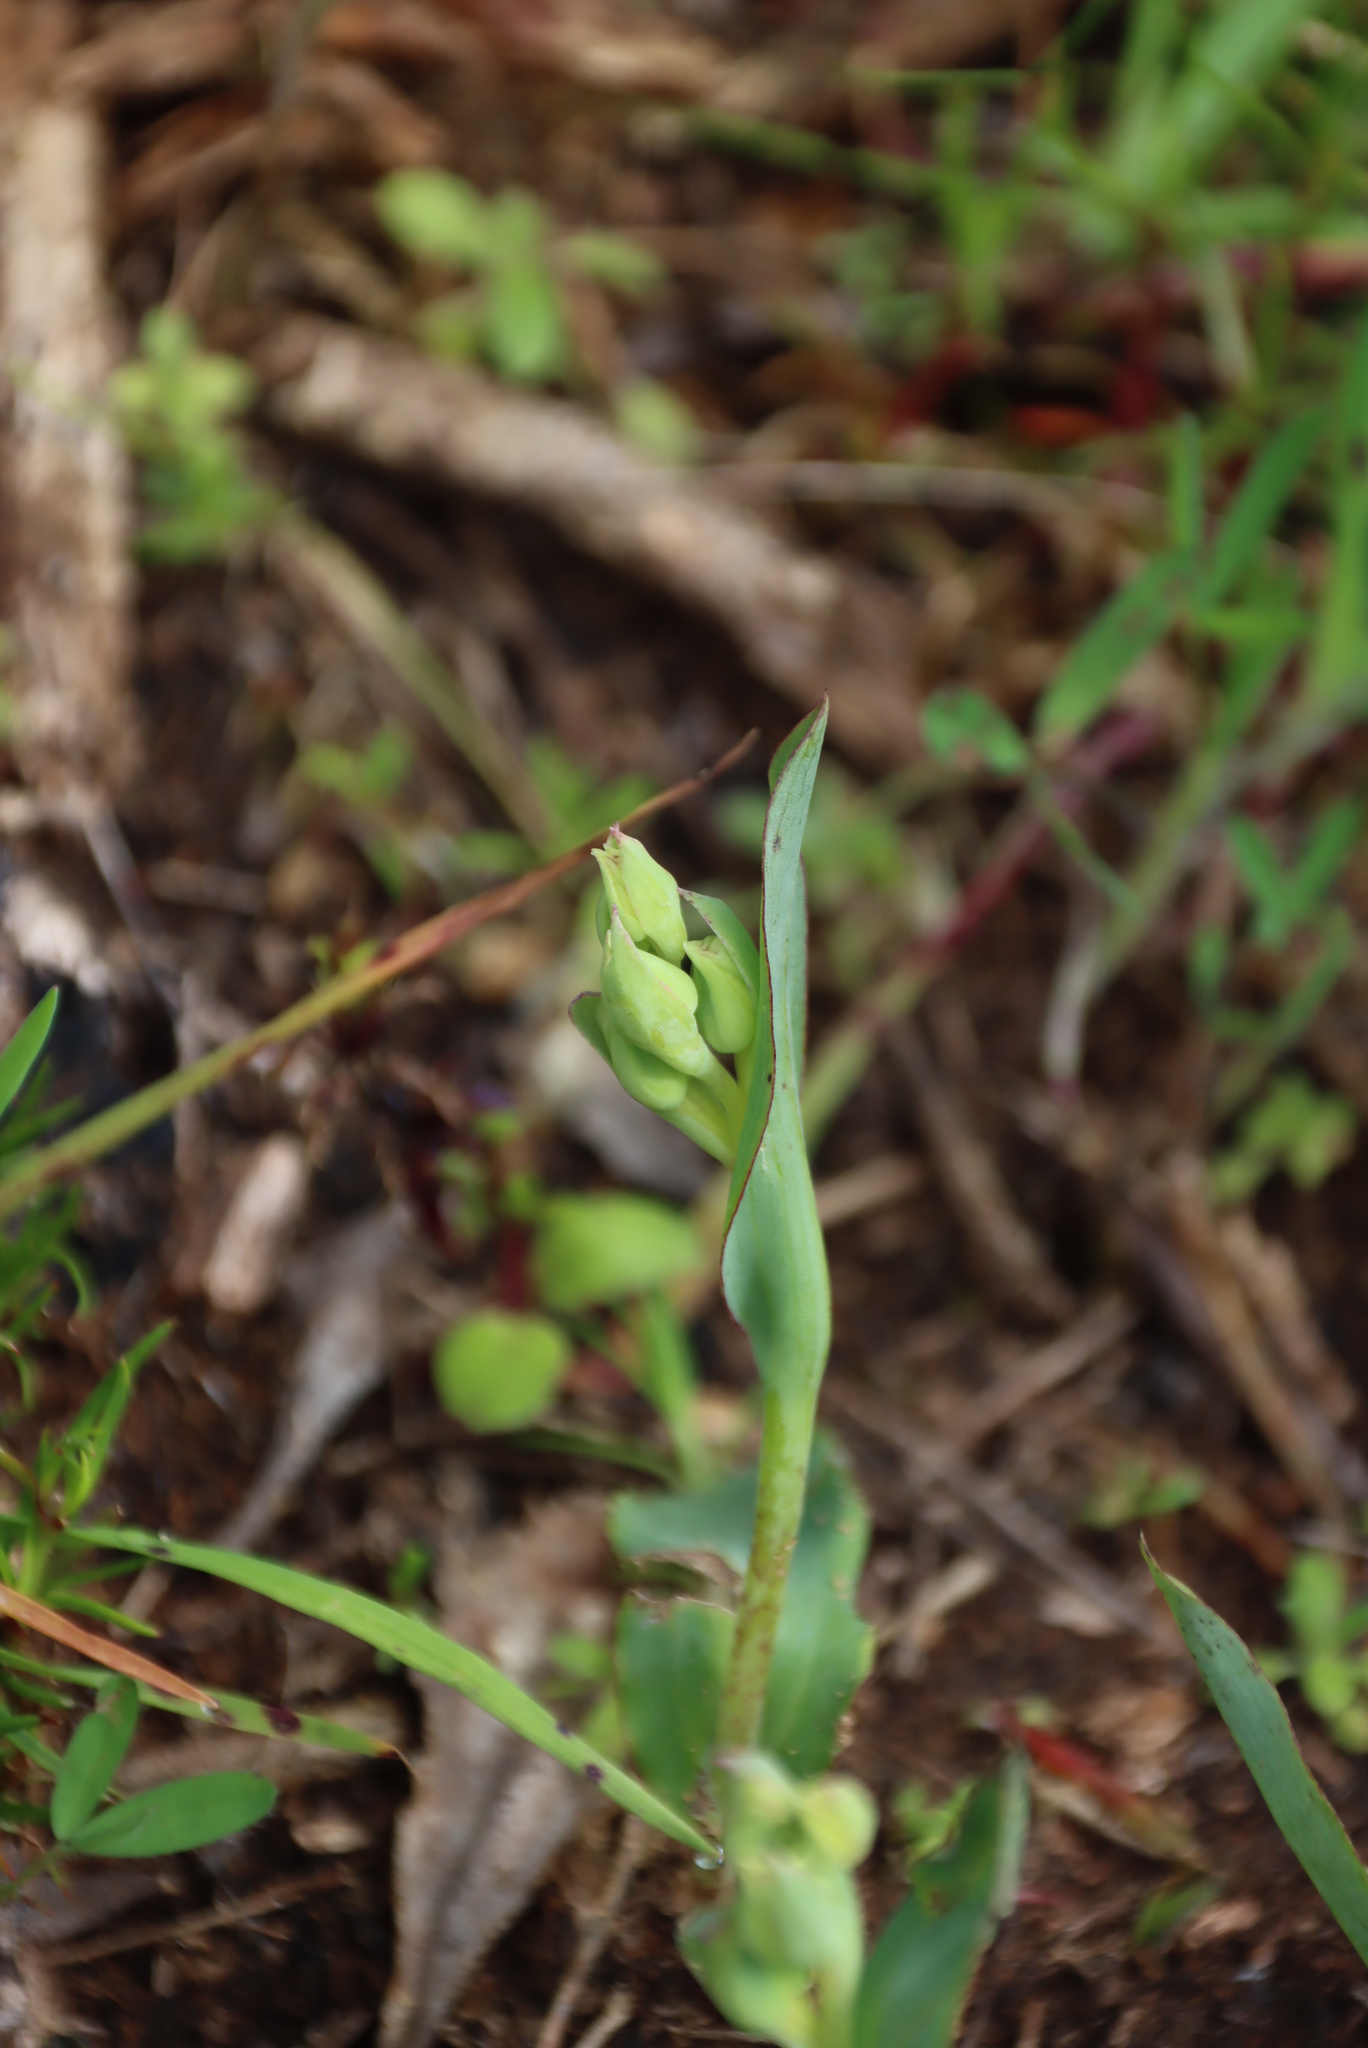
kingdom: Plantae
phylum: Tracheophyta
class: Liliopsida
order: Asparagales
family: Orchidaceae
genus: Pterygodium
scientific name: Pterygodium catholicum
